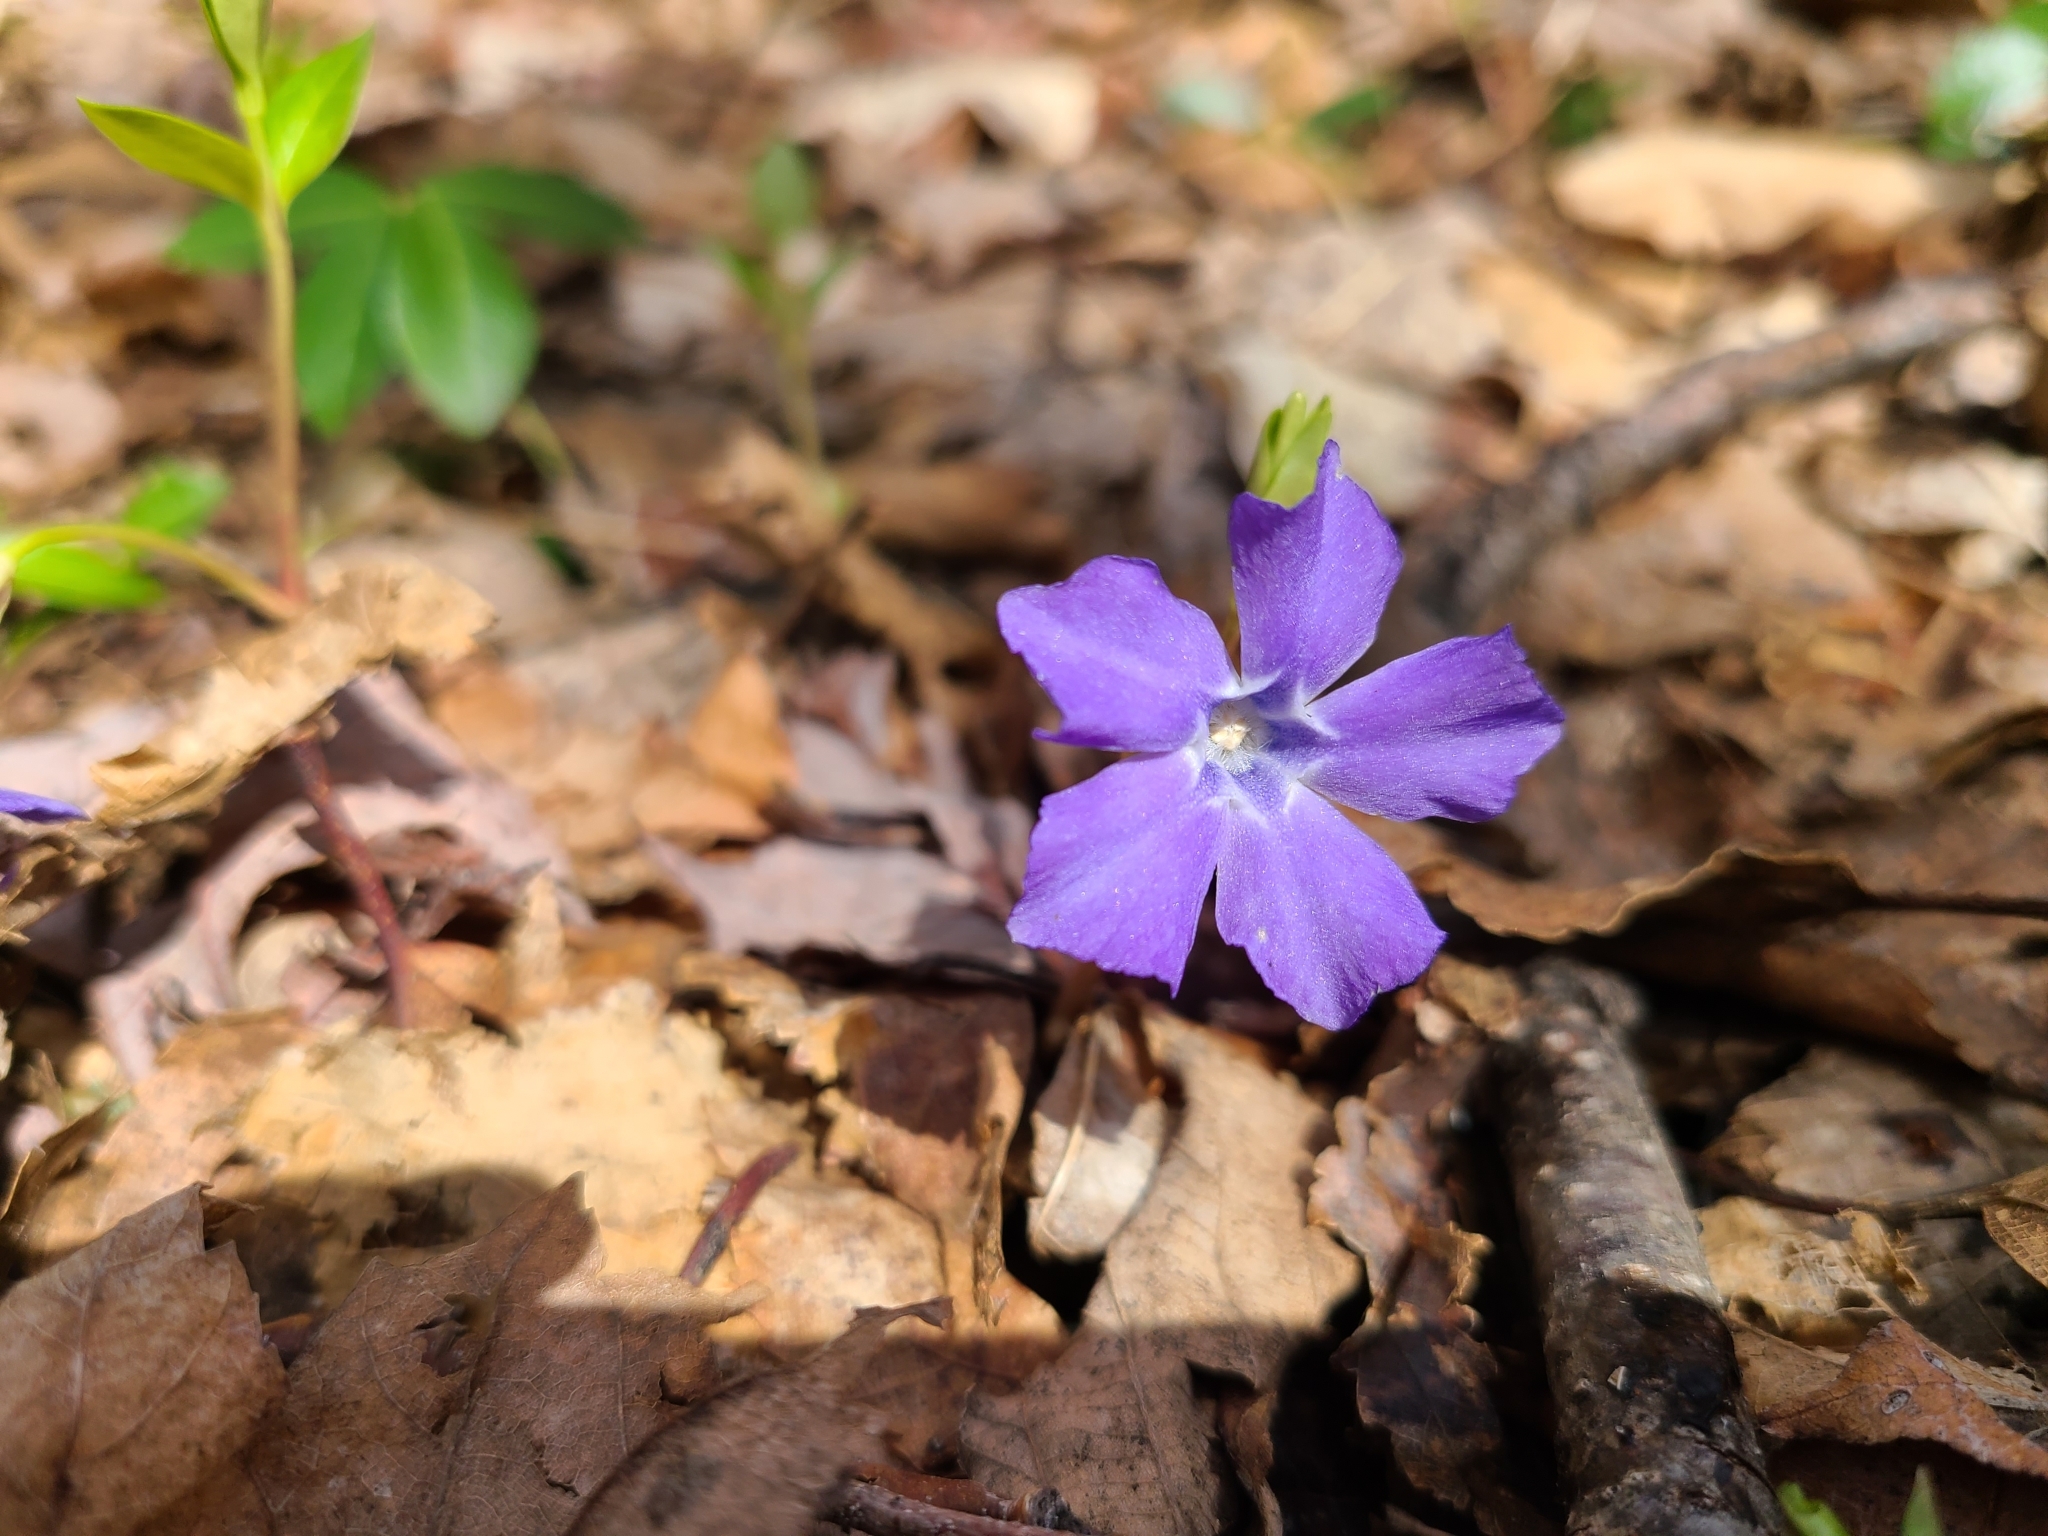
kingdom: Plantae
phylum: Tracheophyta
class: Magnoliopsida
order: Gentianales
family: Apocynaceae
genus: Vinca
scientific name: Vinca minor
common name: Lesser periwinkle
